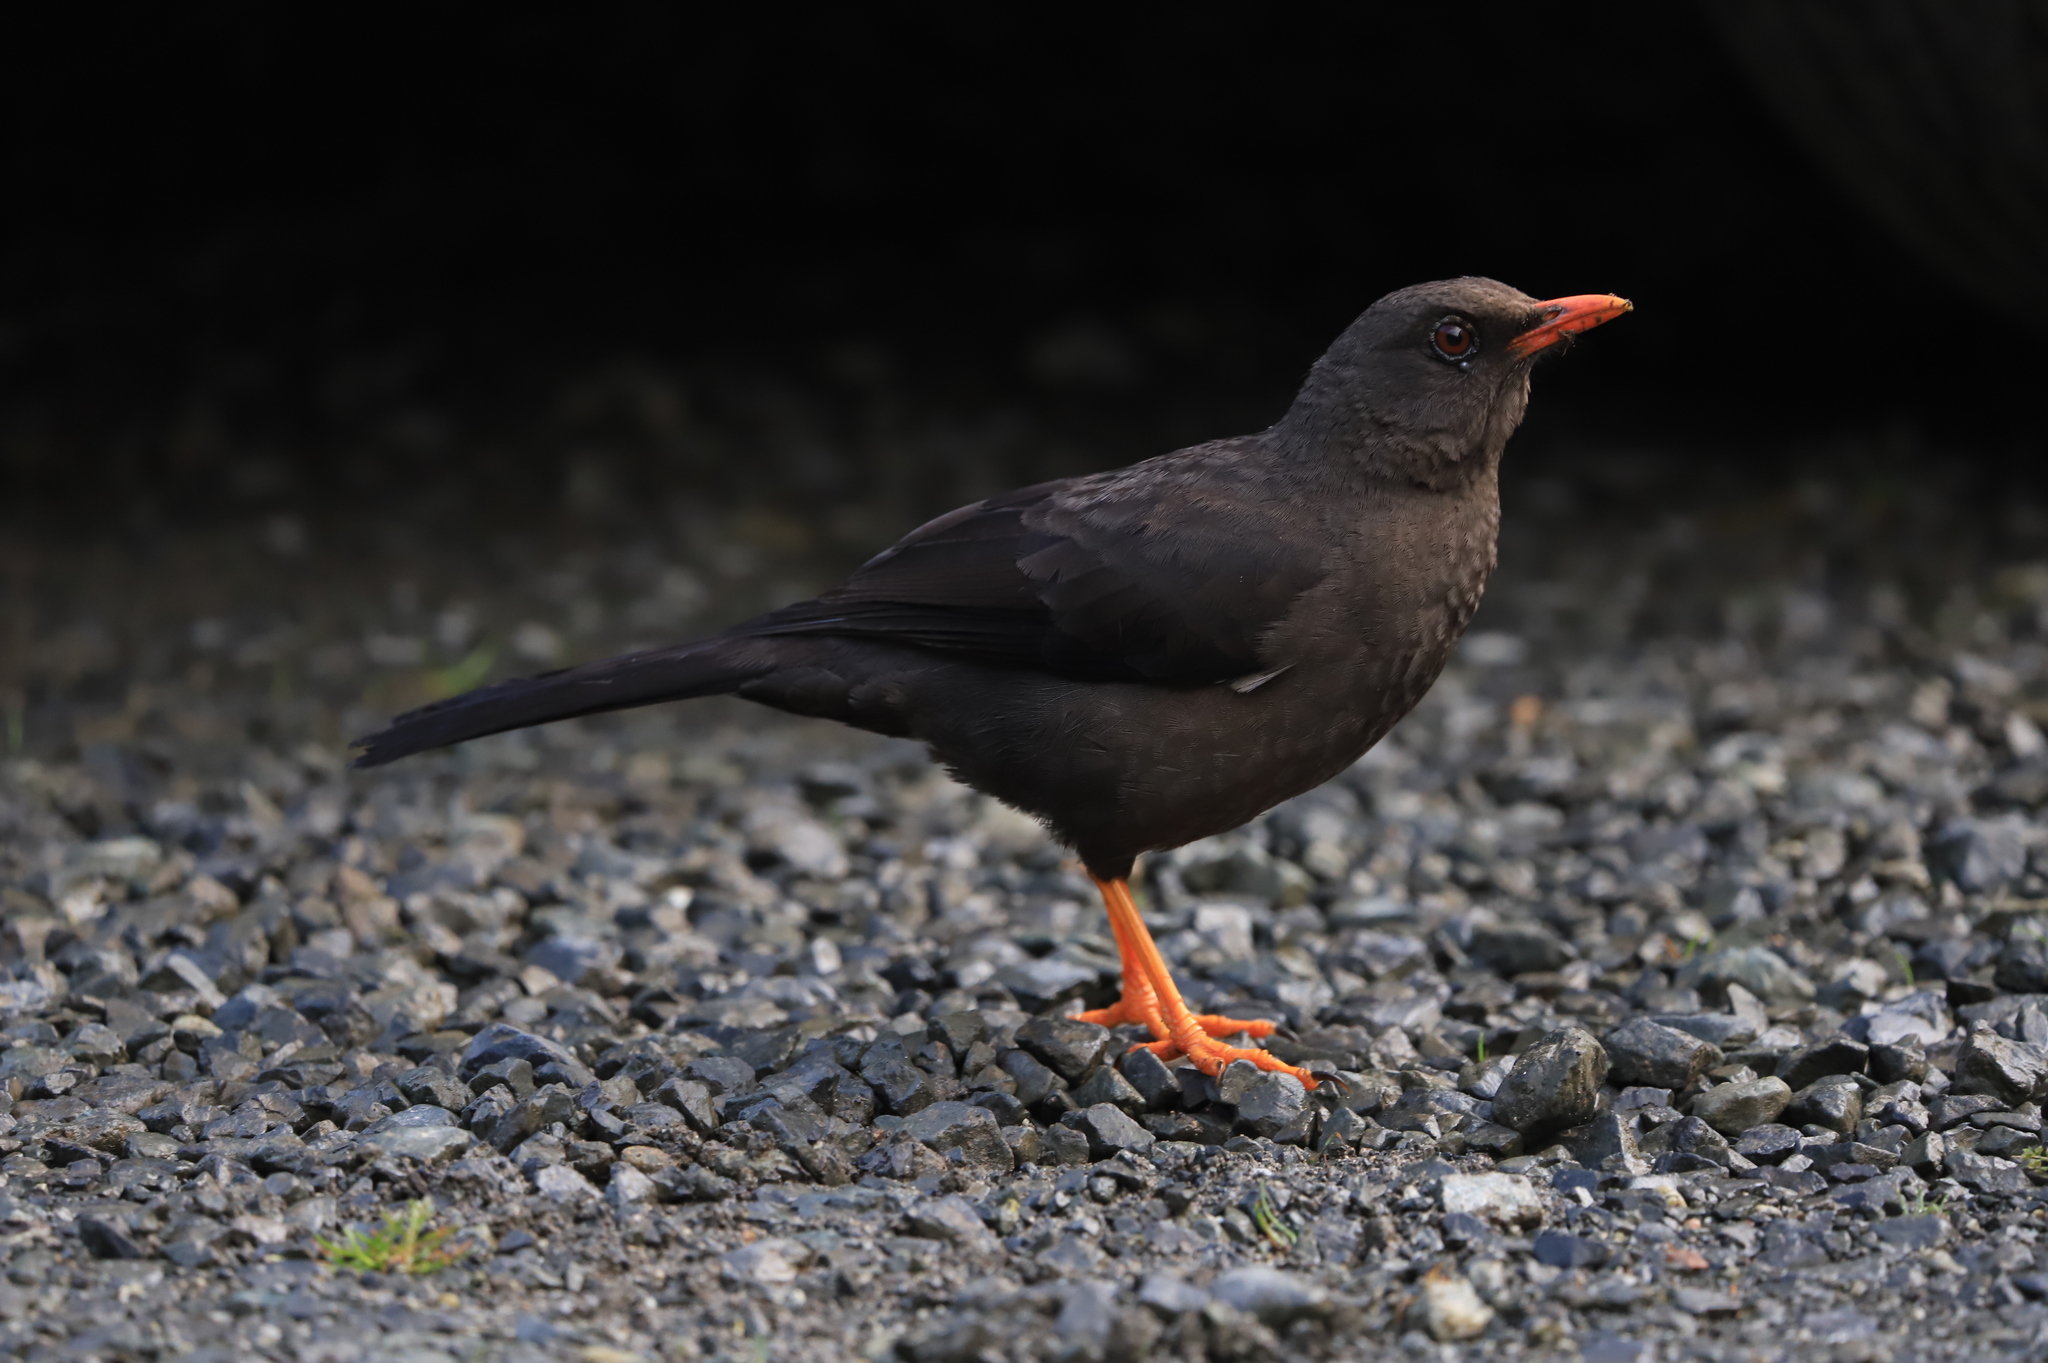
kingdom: Animalia
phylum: Chordata
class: Aves
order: Passeriformes
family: Turdidae
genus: Turdus
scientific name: Turdus fuscater
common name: Great thrush
